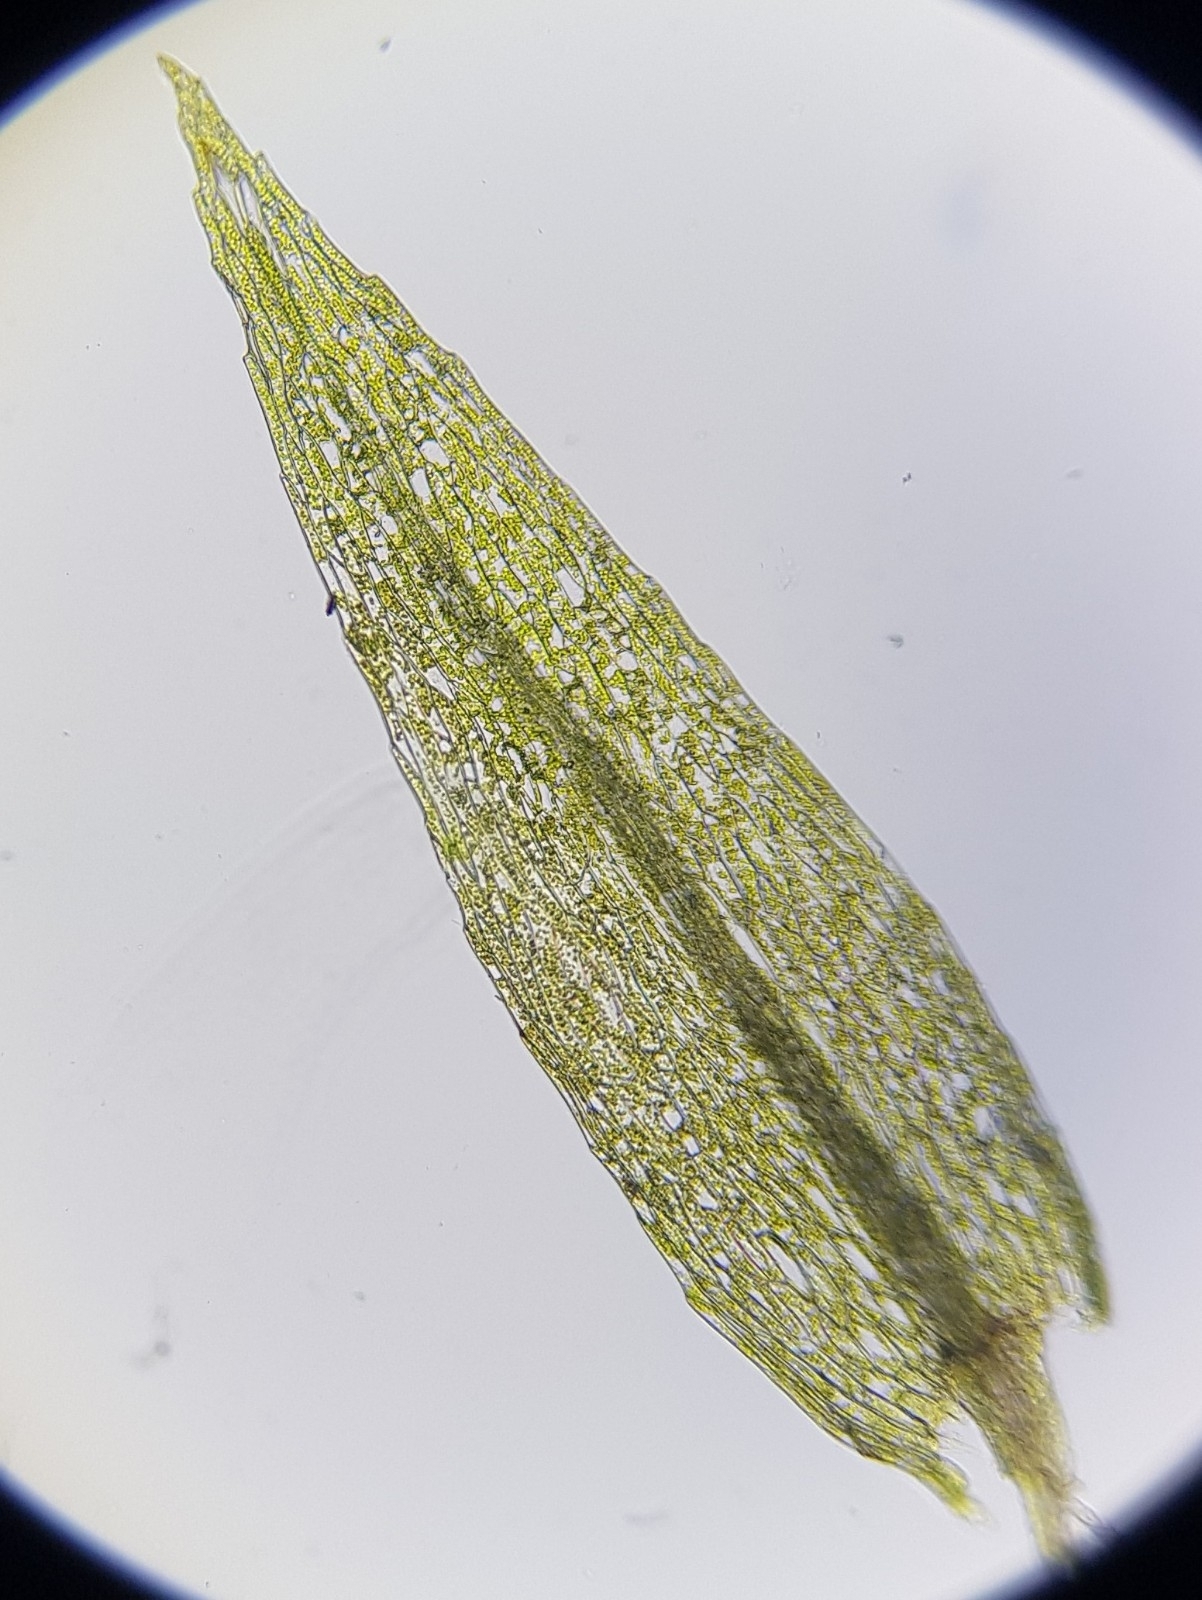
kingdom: Plantae
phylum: Bryophyta
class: Bryopsida
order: Bryales
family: Mniaceae
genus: Pohlia
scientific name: Pohlia melanodon
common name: Black-toothed nodding moss
